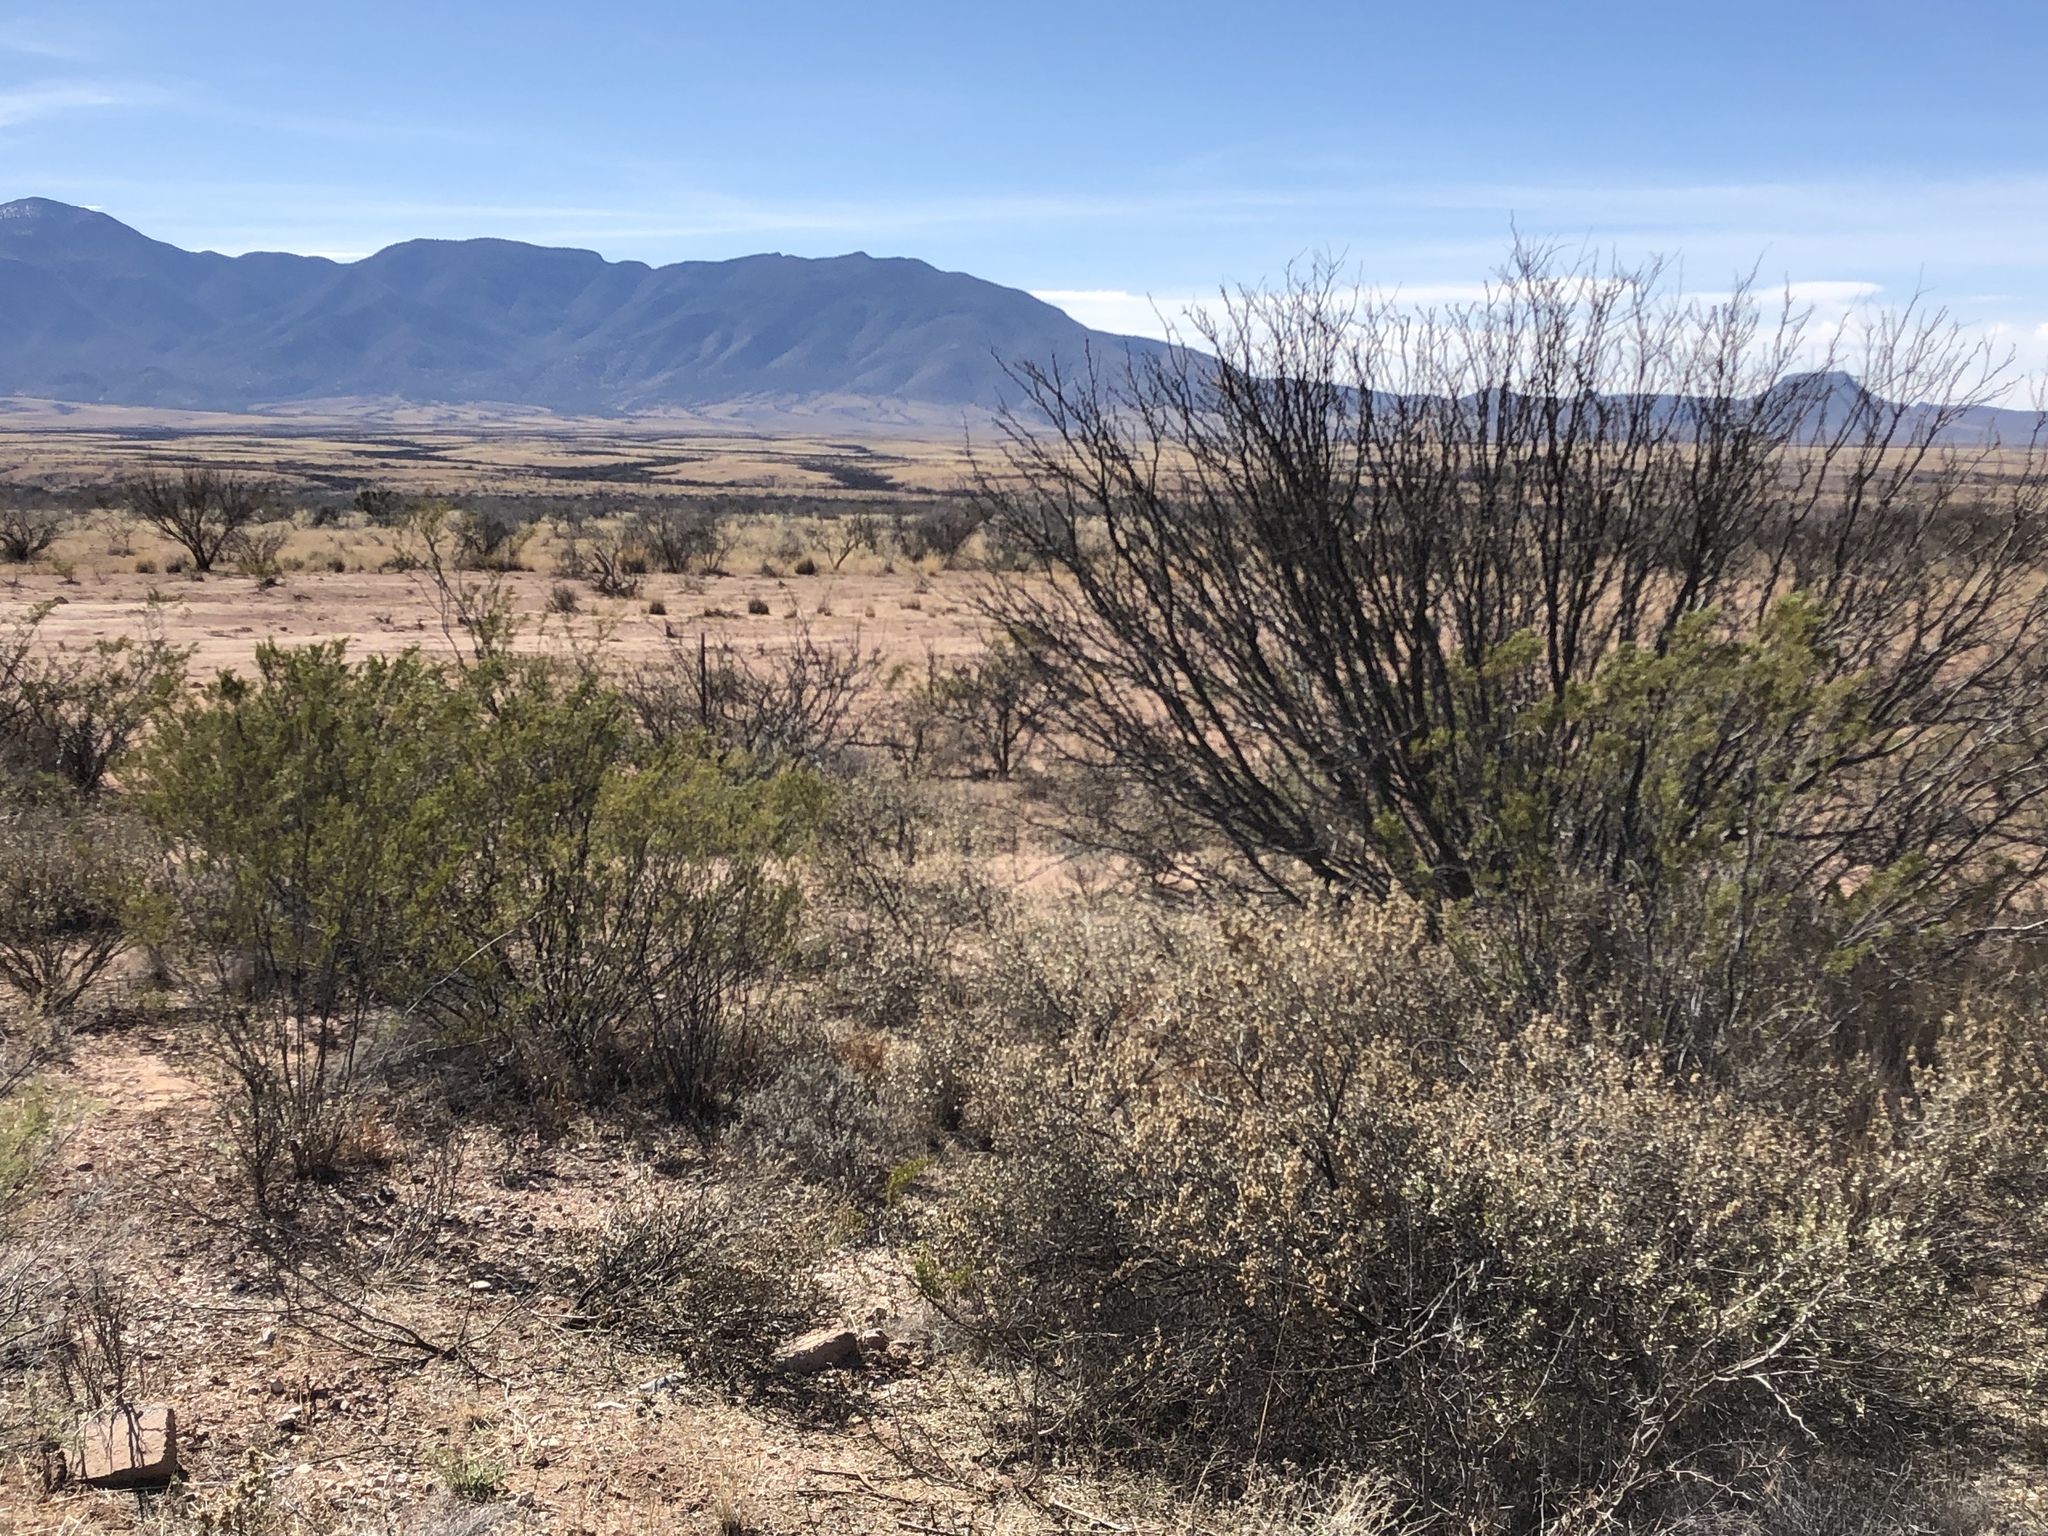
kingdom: Plantae
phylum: Tracheophyta
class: Magnoliopsida
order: Zygophyllales
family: Zygophyllaceae
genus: Larrea
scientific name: Larrea tridentata
